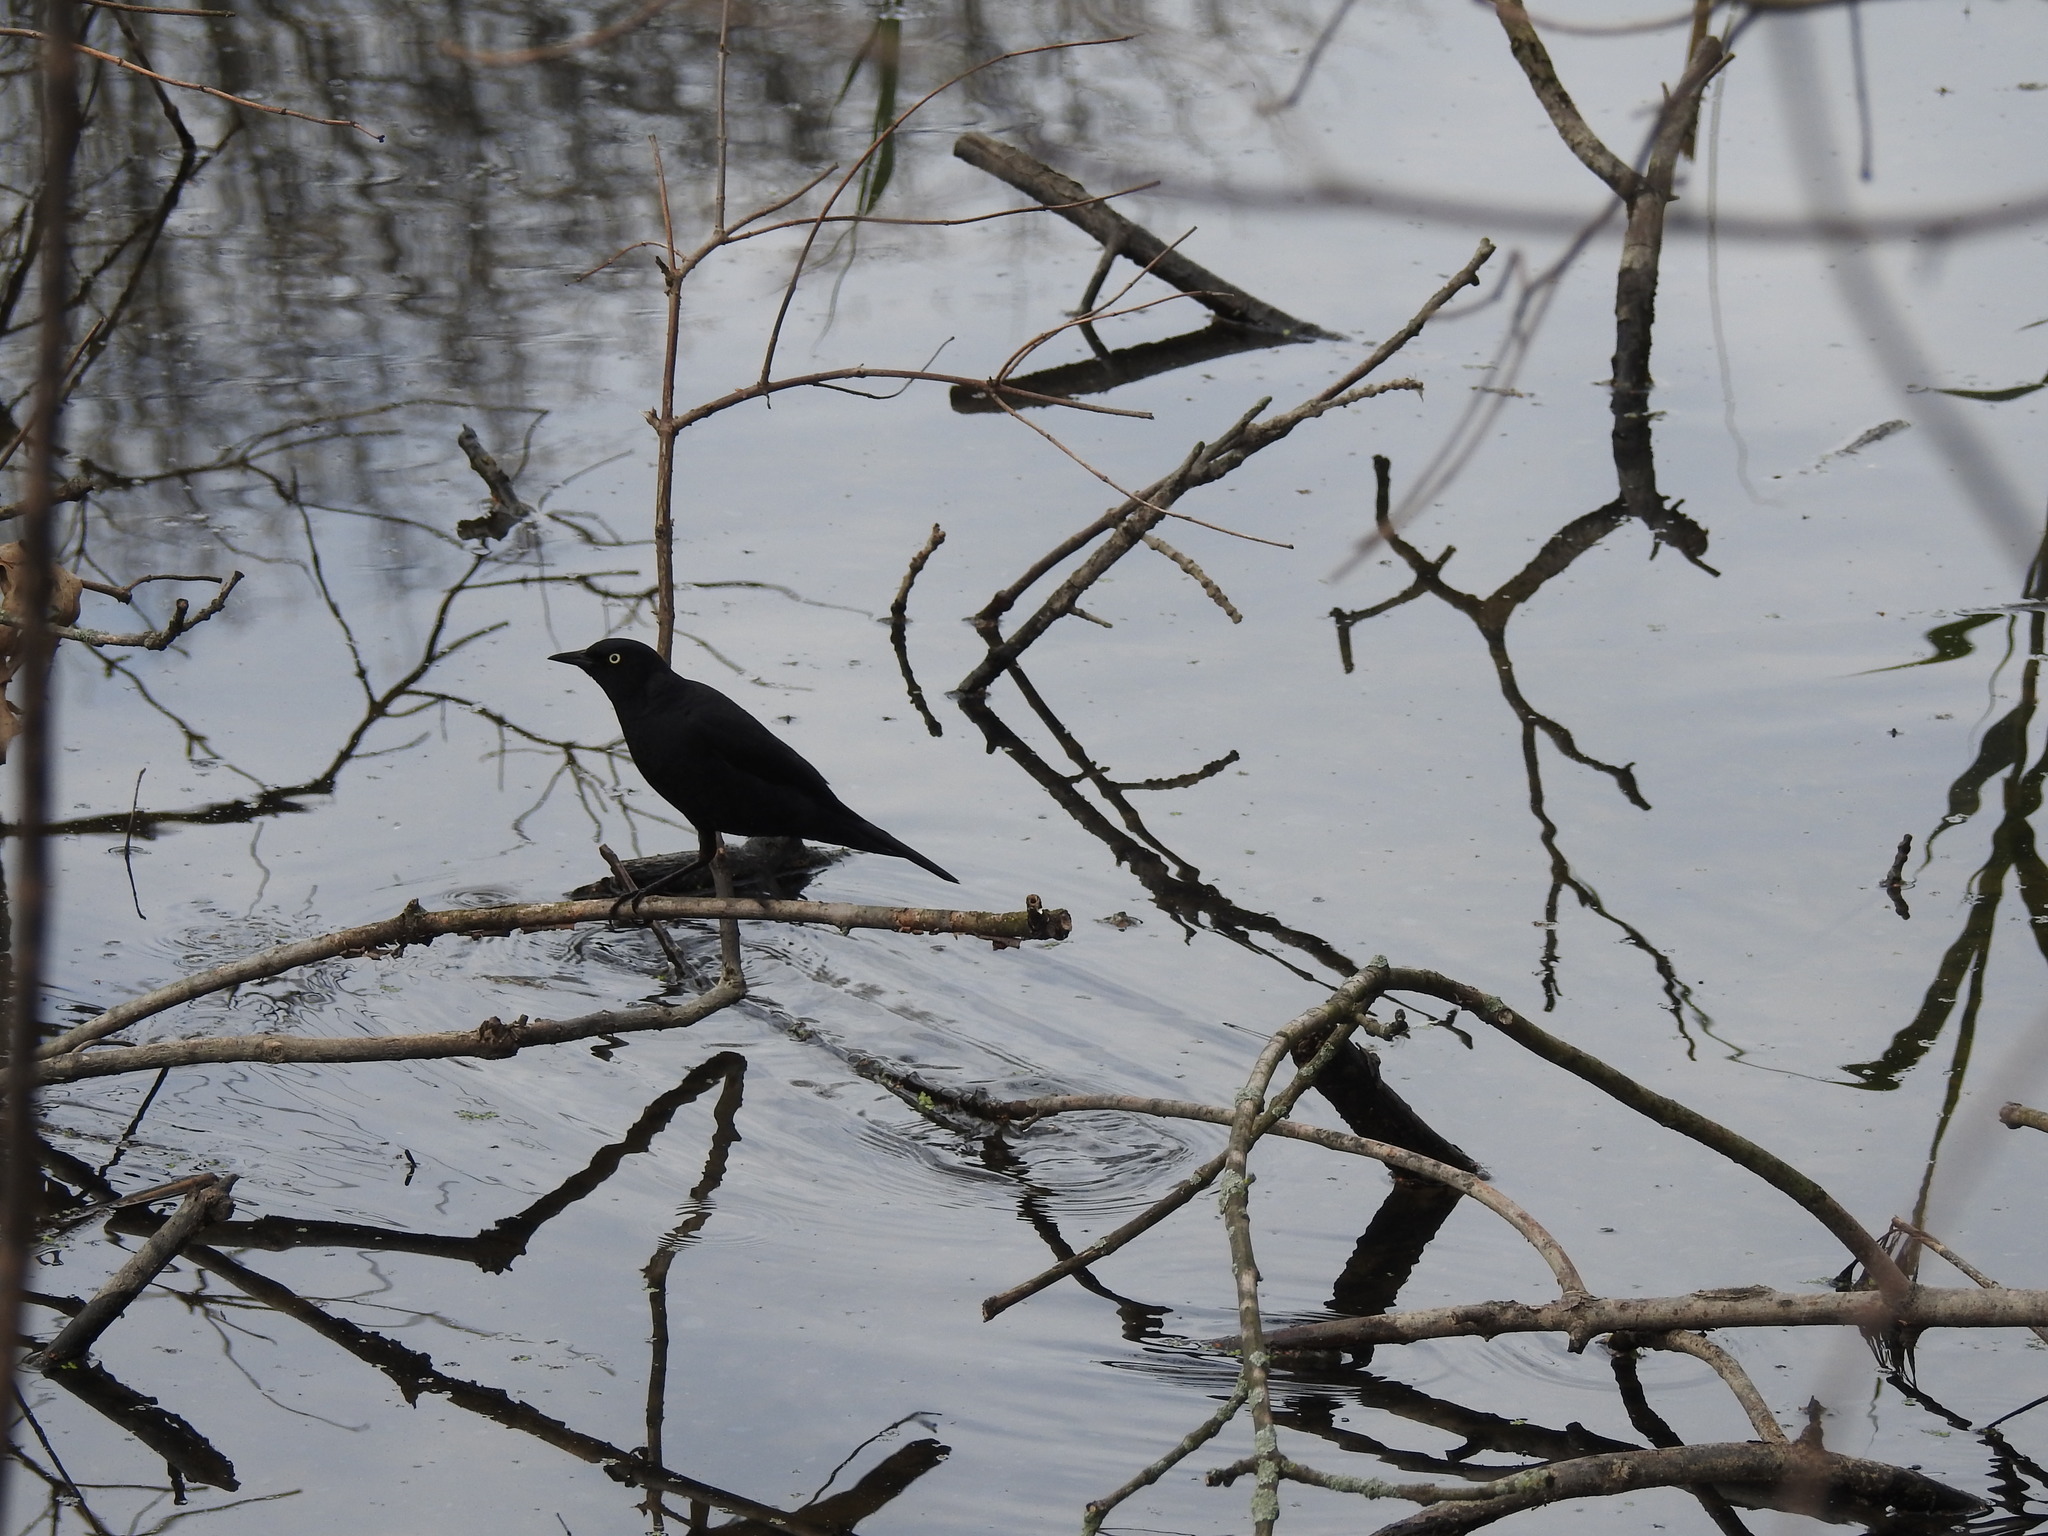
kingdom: Animalia
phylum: Chordata
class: Aves
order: Passeriformes
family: Icteridae
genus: Euphagus
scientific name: Euphagus carolinus
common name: Rusty blackbird
